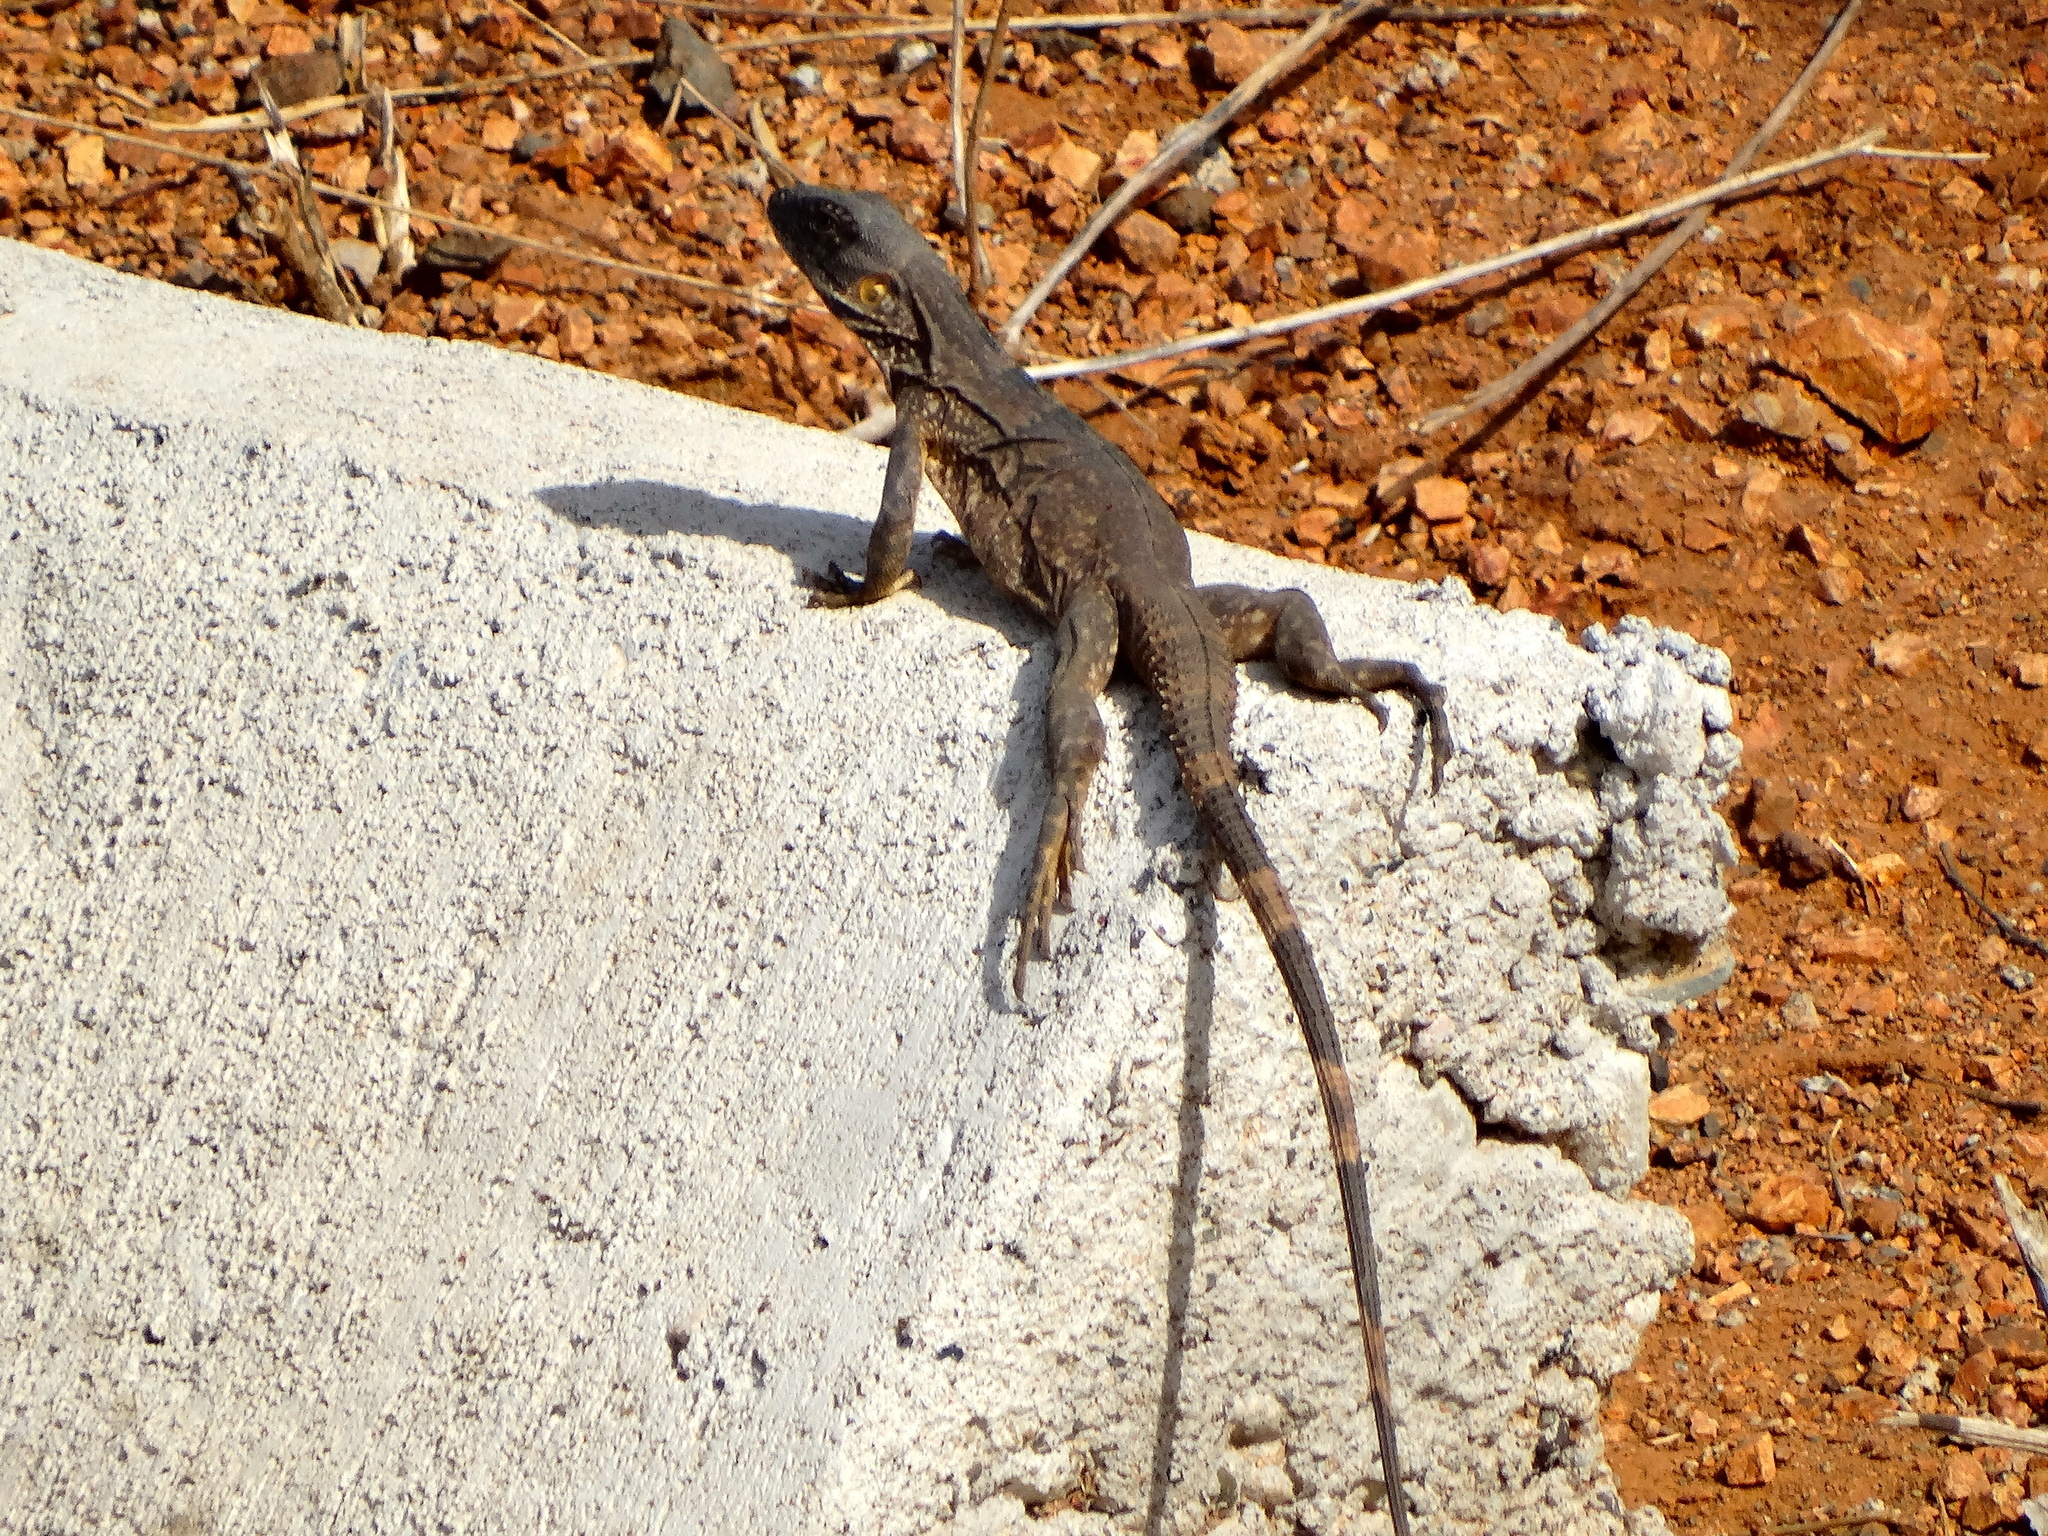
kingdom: Animalia
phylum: Chordata
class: Squamata
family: Iguanidae
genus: Ctenosaura
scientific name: Ctenosaura pectinata
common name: Guerreran spiny-tailed iguana
